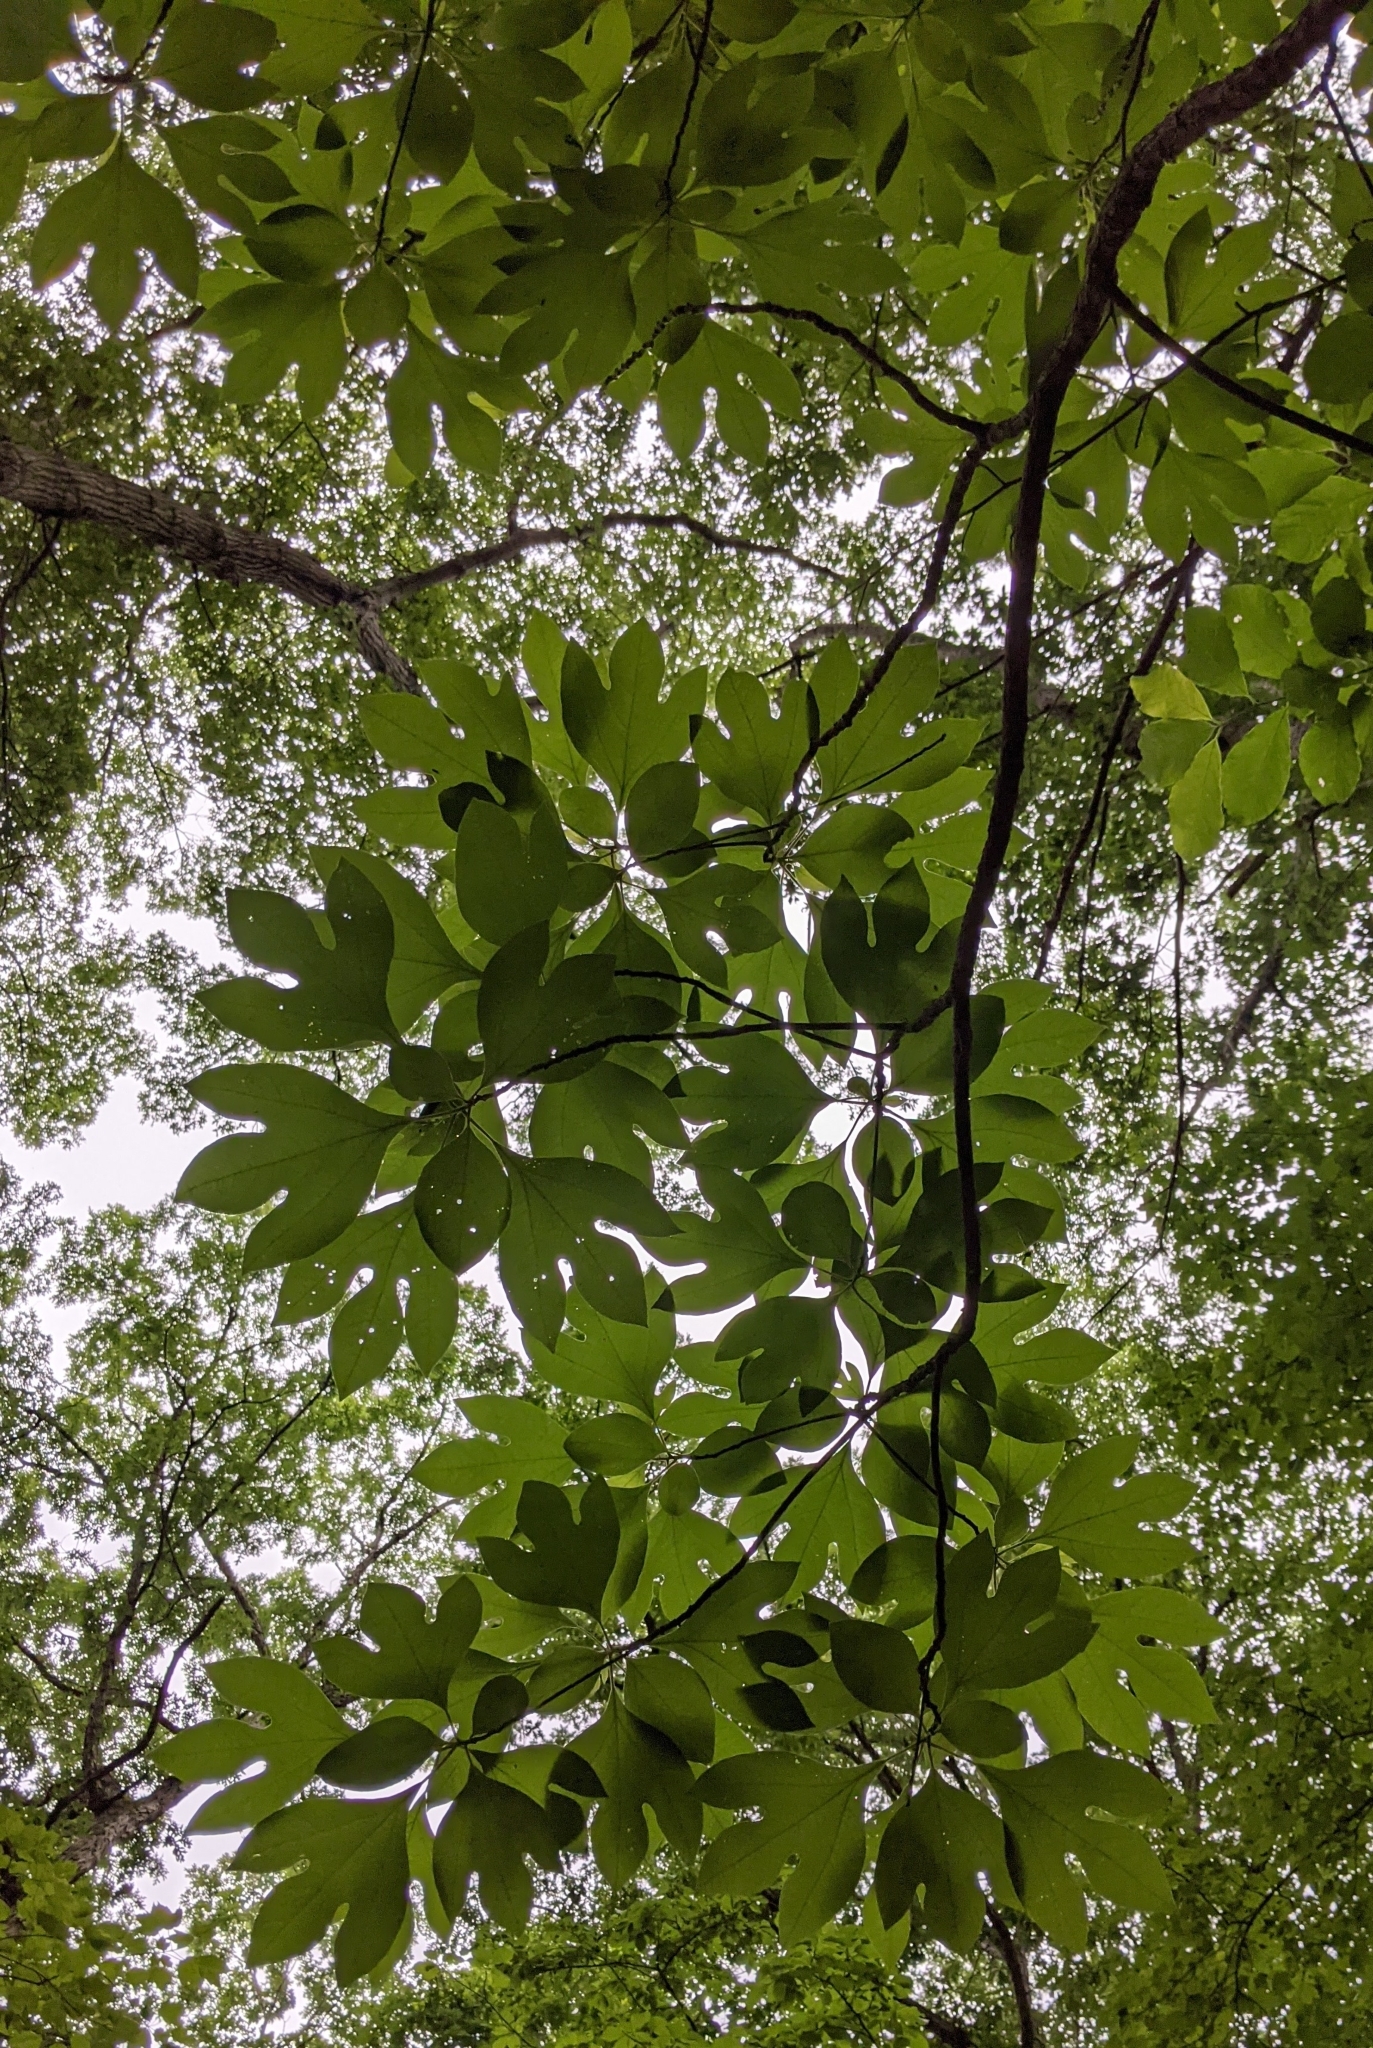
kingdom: Plantae
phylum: Tracheophyta
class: Magnoliopsida
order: Laurales
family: Lauraceae
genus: Sassafras
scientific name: Sassafras albidum
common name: Sassafras
